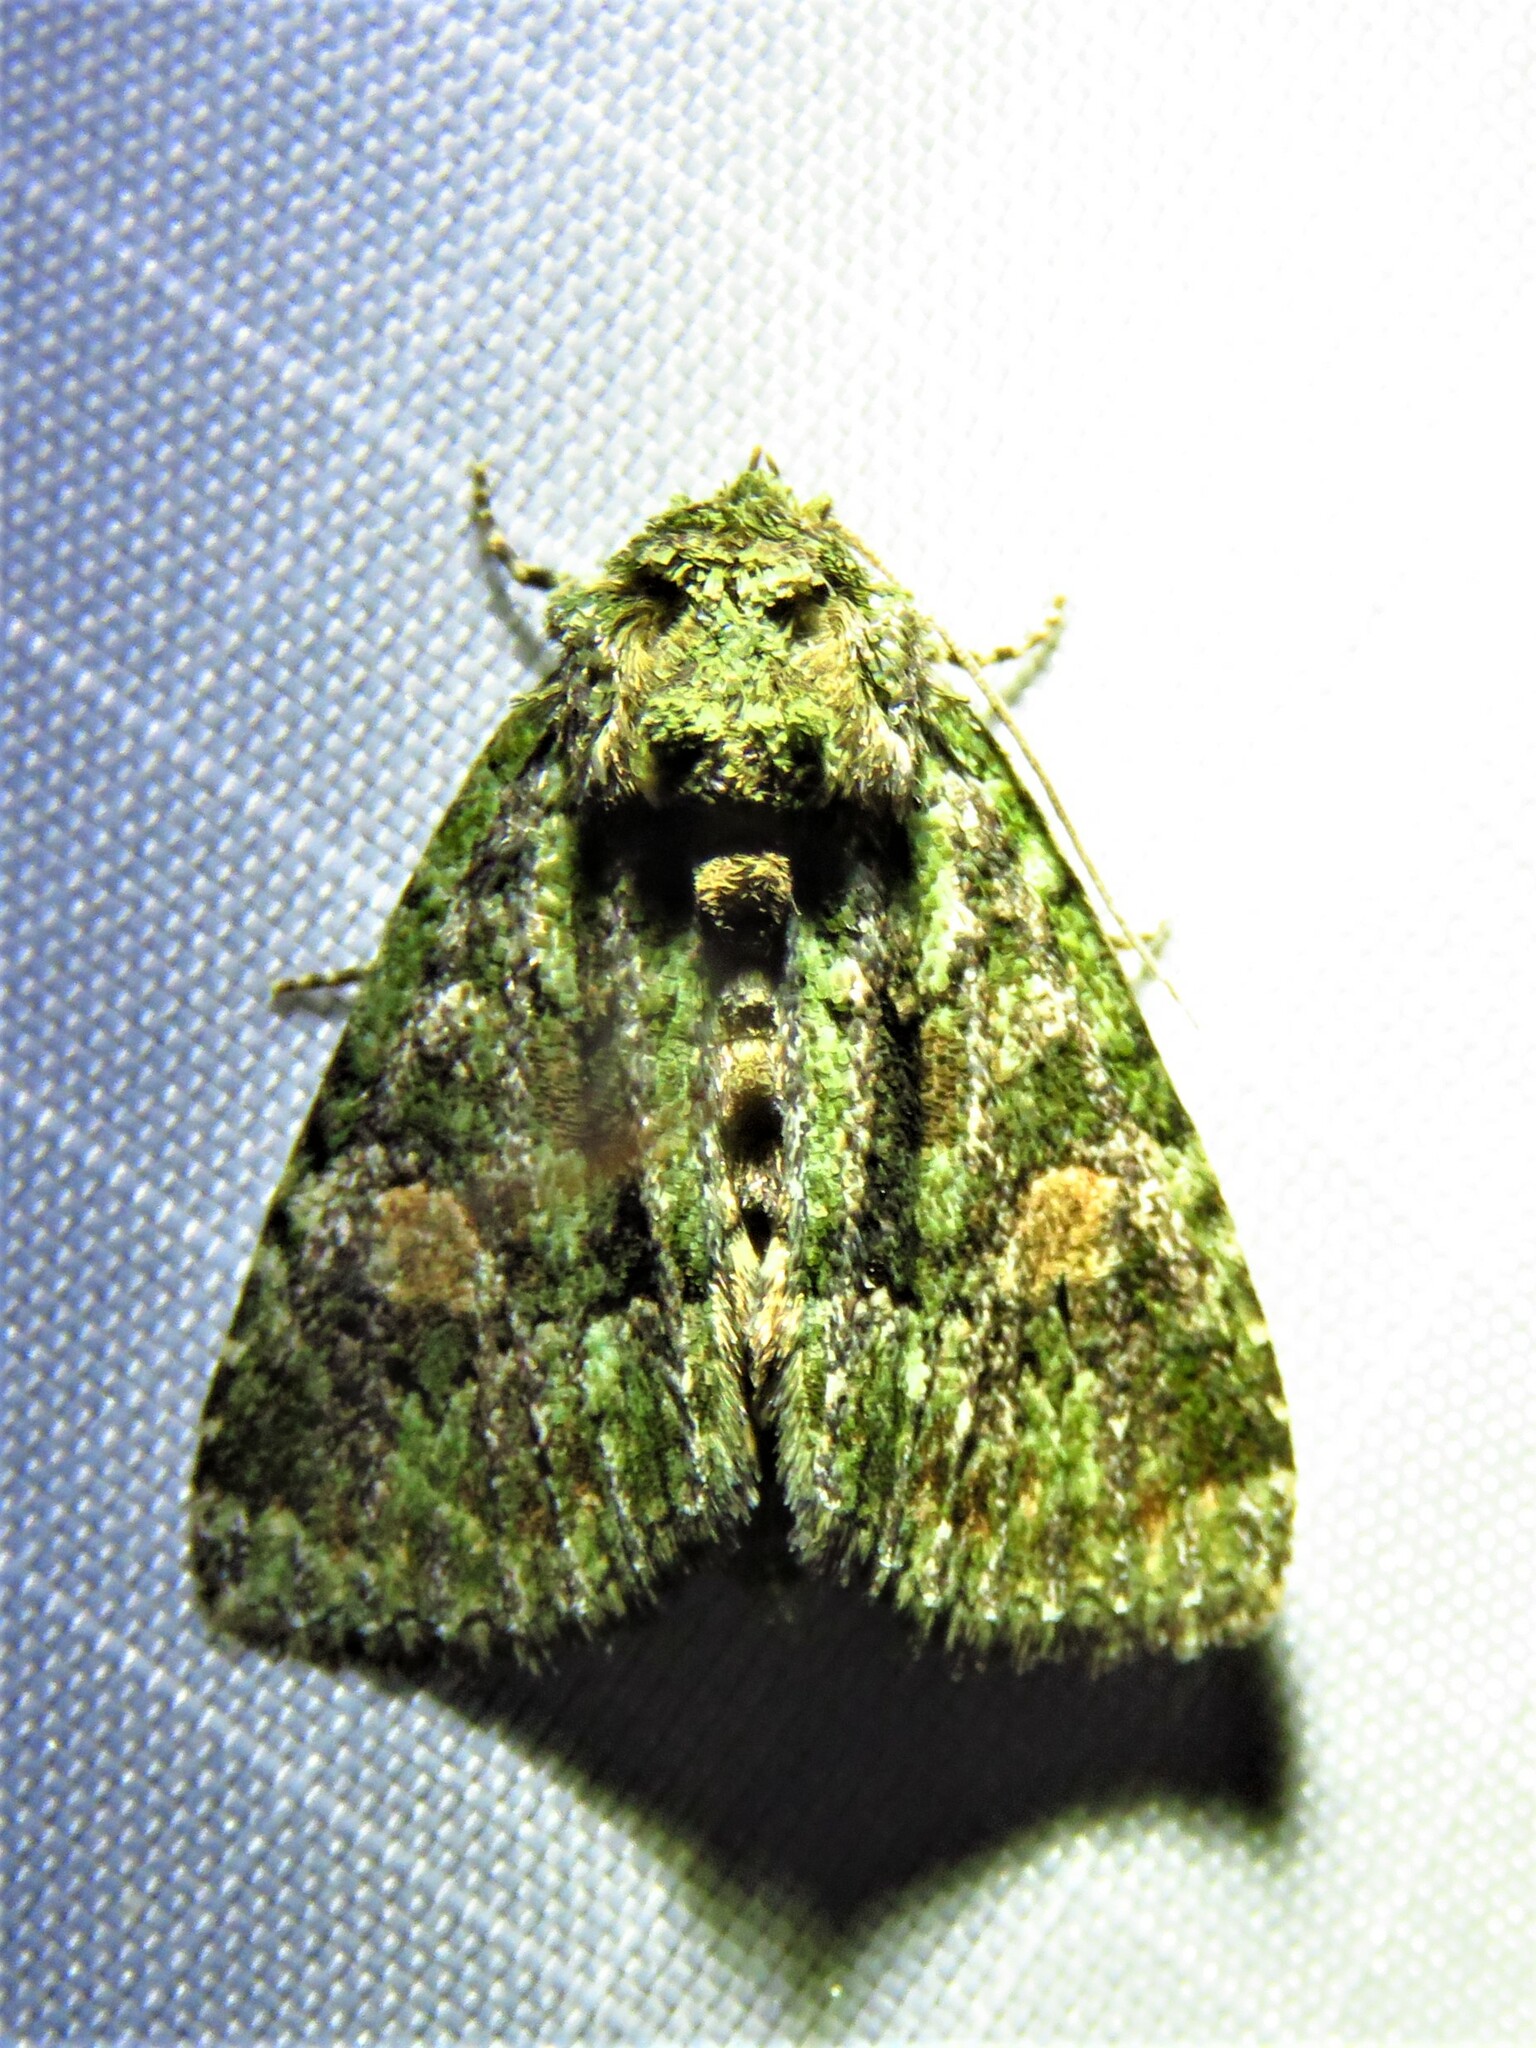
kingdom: Animalia
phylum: Arthropoda
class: Insecta
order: Lepidoptera
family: Noctuidae
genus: Phosphila
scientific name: Phosphila miselioides
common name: Spotted phosphila moth
